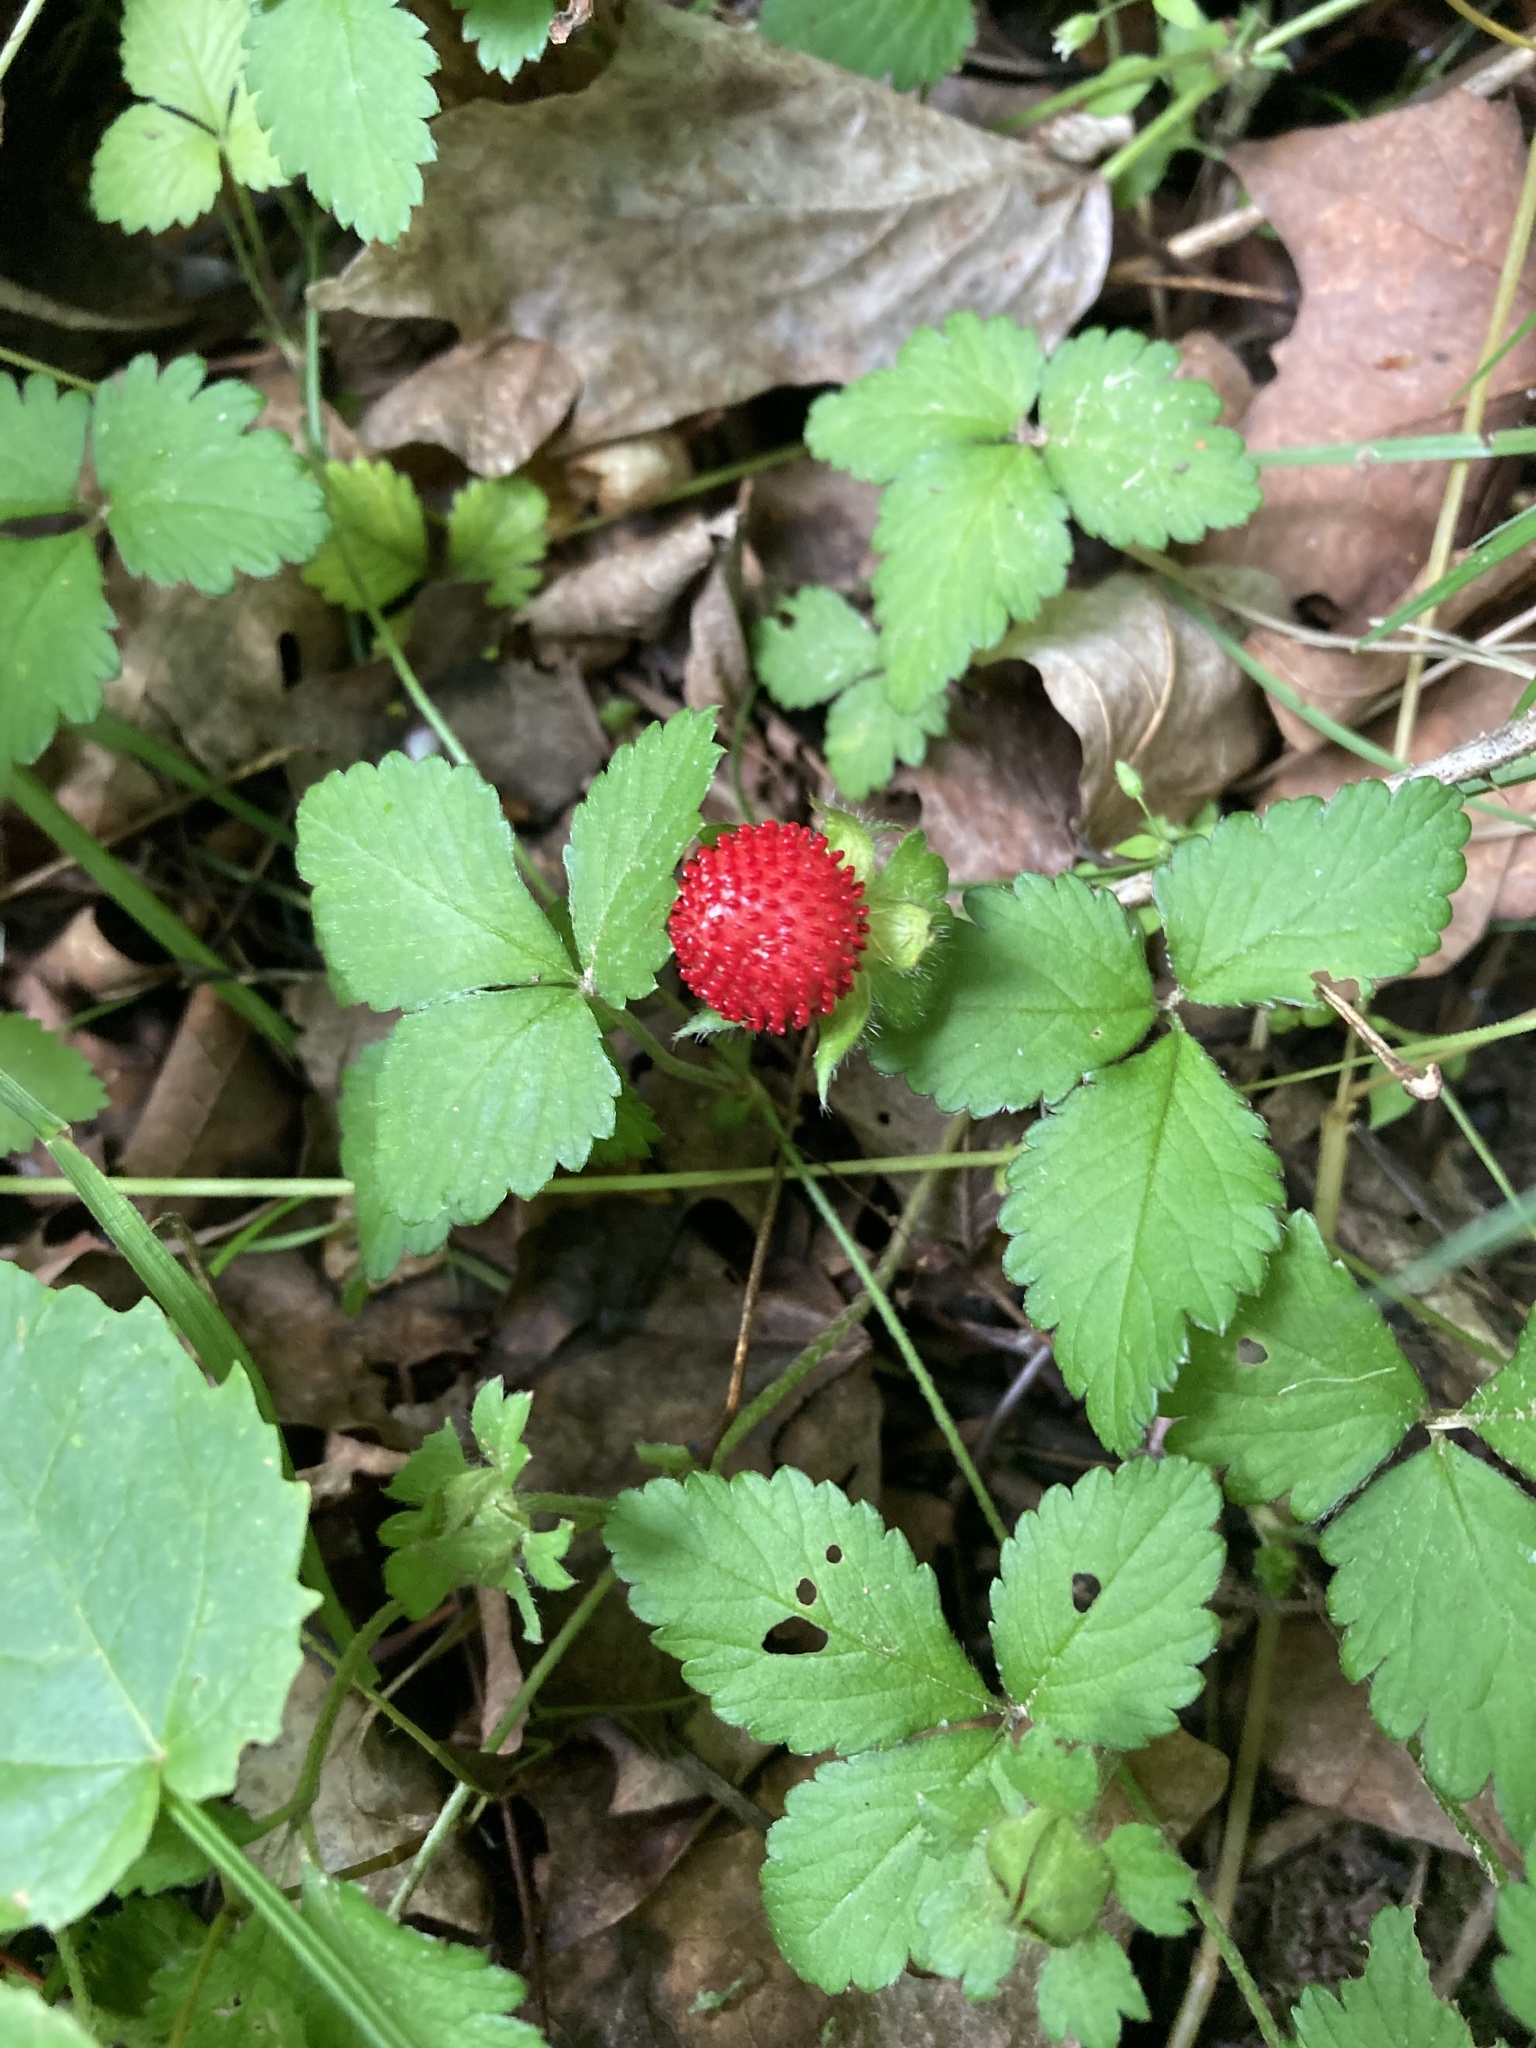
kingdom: Plantae
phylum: Tracheophyta
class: Magnoliopsida
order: Rosales
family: Rosaceae
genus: Potentilla
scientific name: Potentilla indica
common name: Yellow-flowered strawberry
